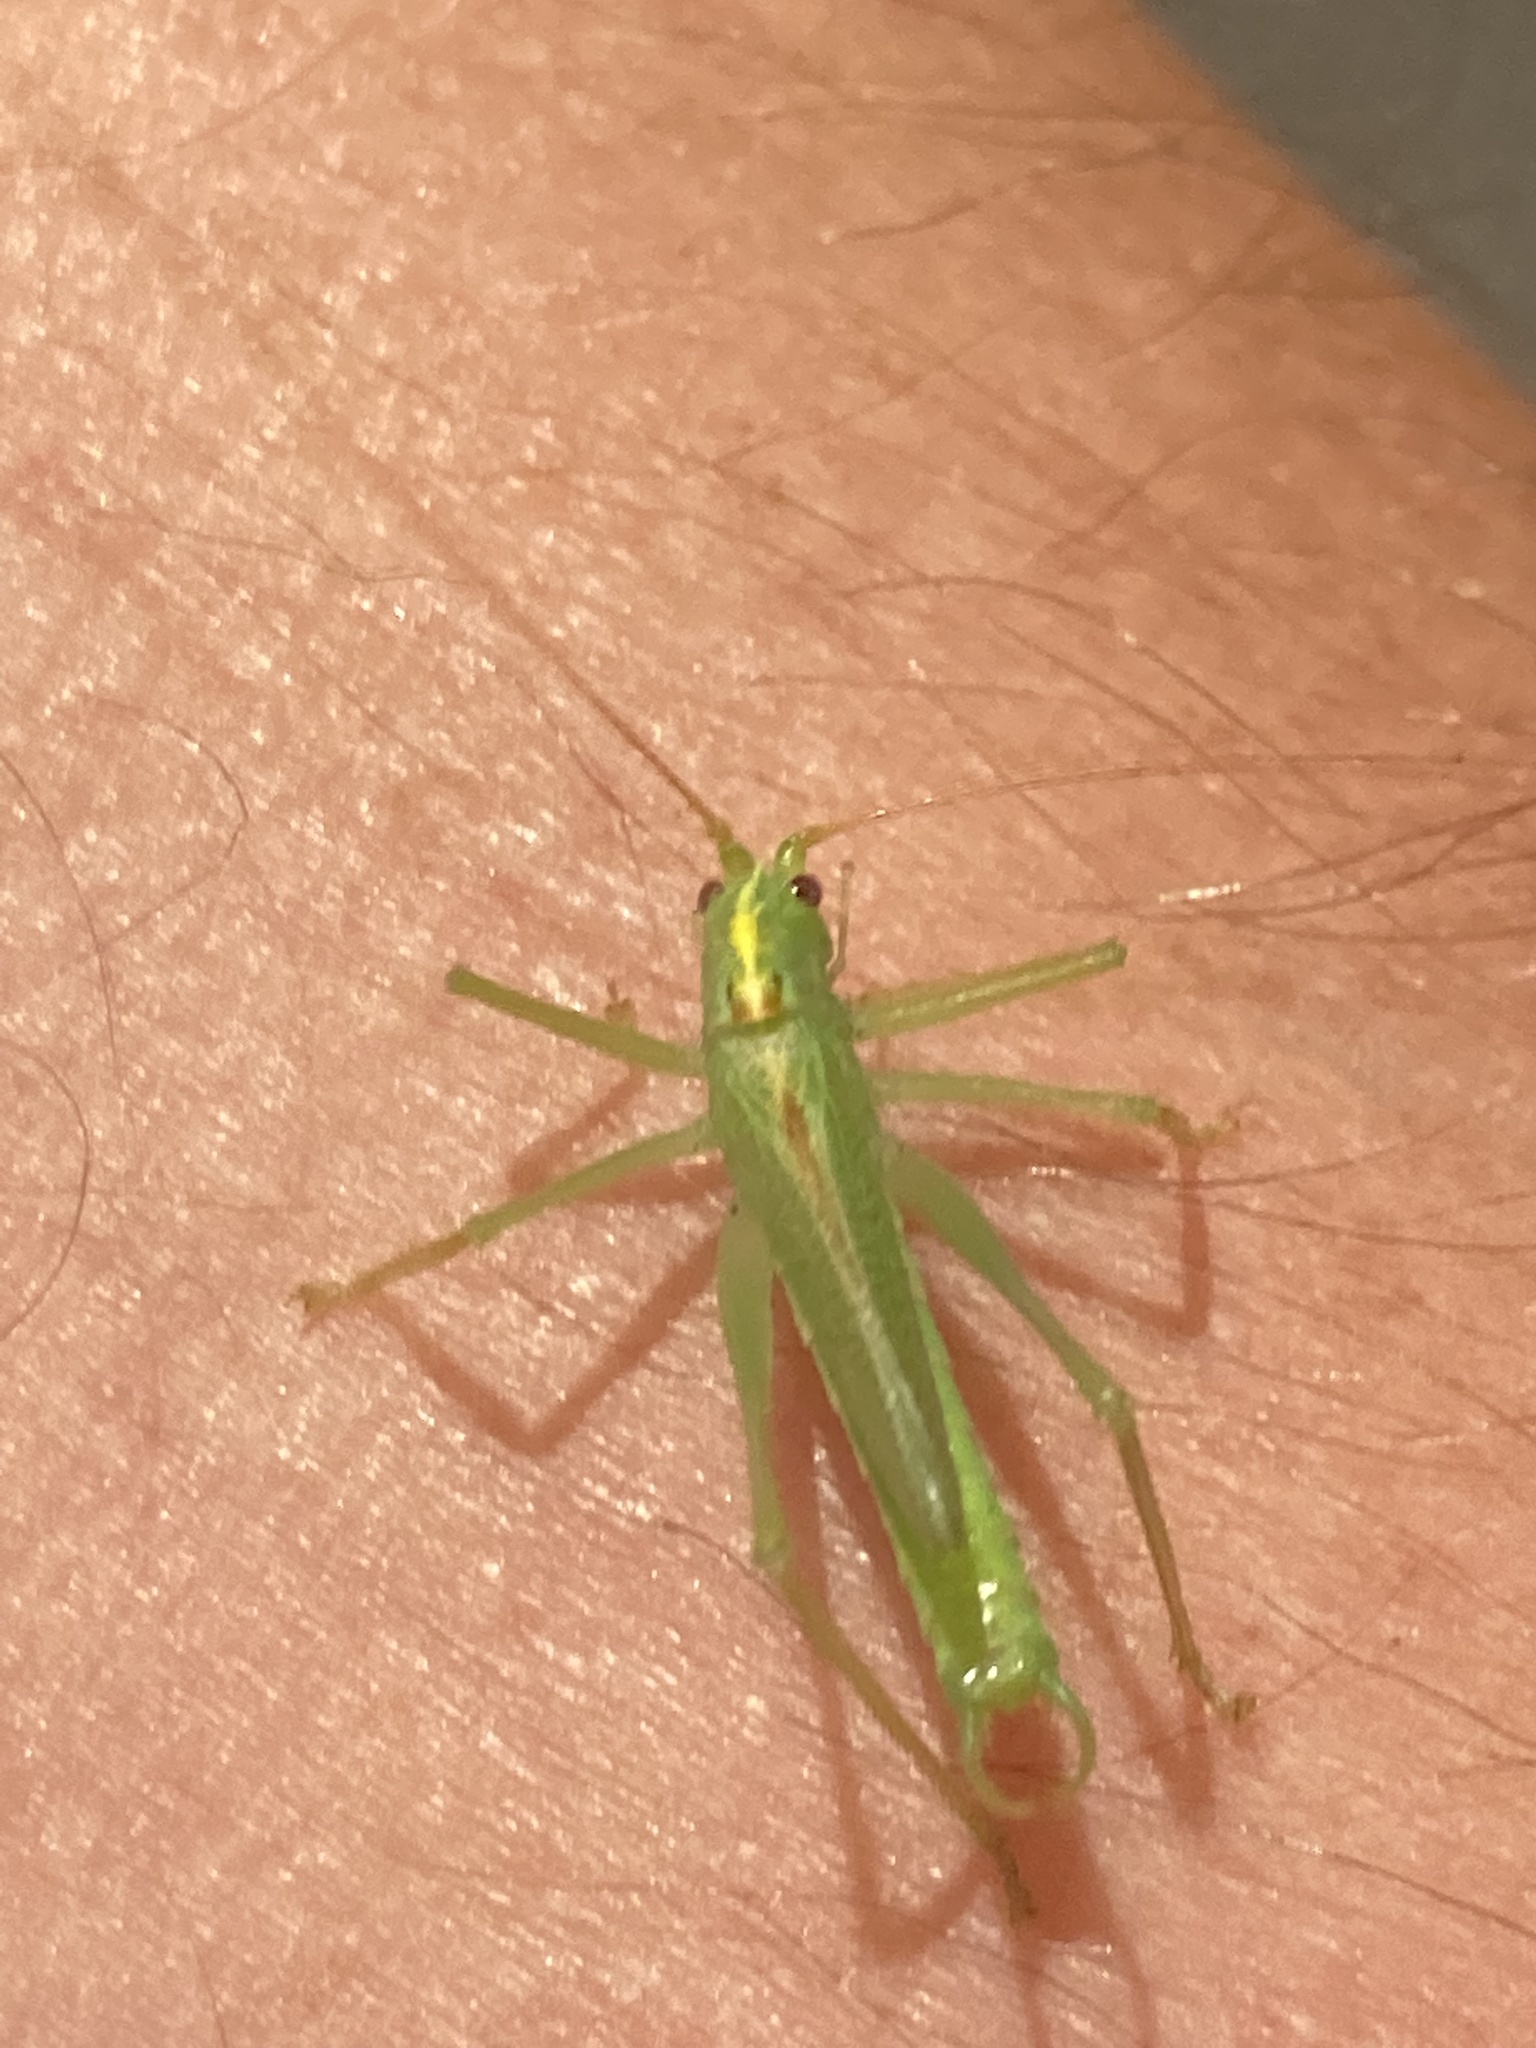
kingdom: Animalia
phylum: Arthropoda
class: Insecta
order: Orthoptera
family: Tettigoniidae
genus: Meconema
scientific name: Meconema thalassinum
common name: Oak bush-cricket
